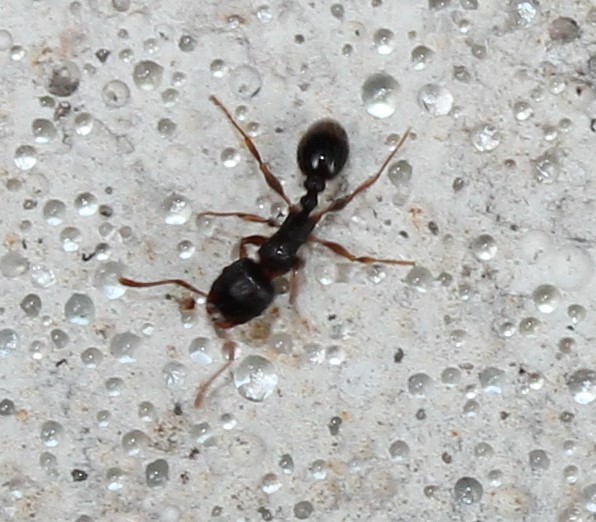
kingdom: Animalia
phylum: Arthropoda
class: Insecta
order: Hymenoptera
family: Formicidae
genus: Tetramorium
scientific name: Tetramorium immigrans
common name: Pavement ant
